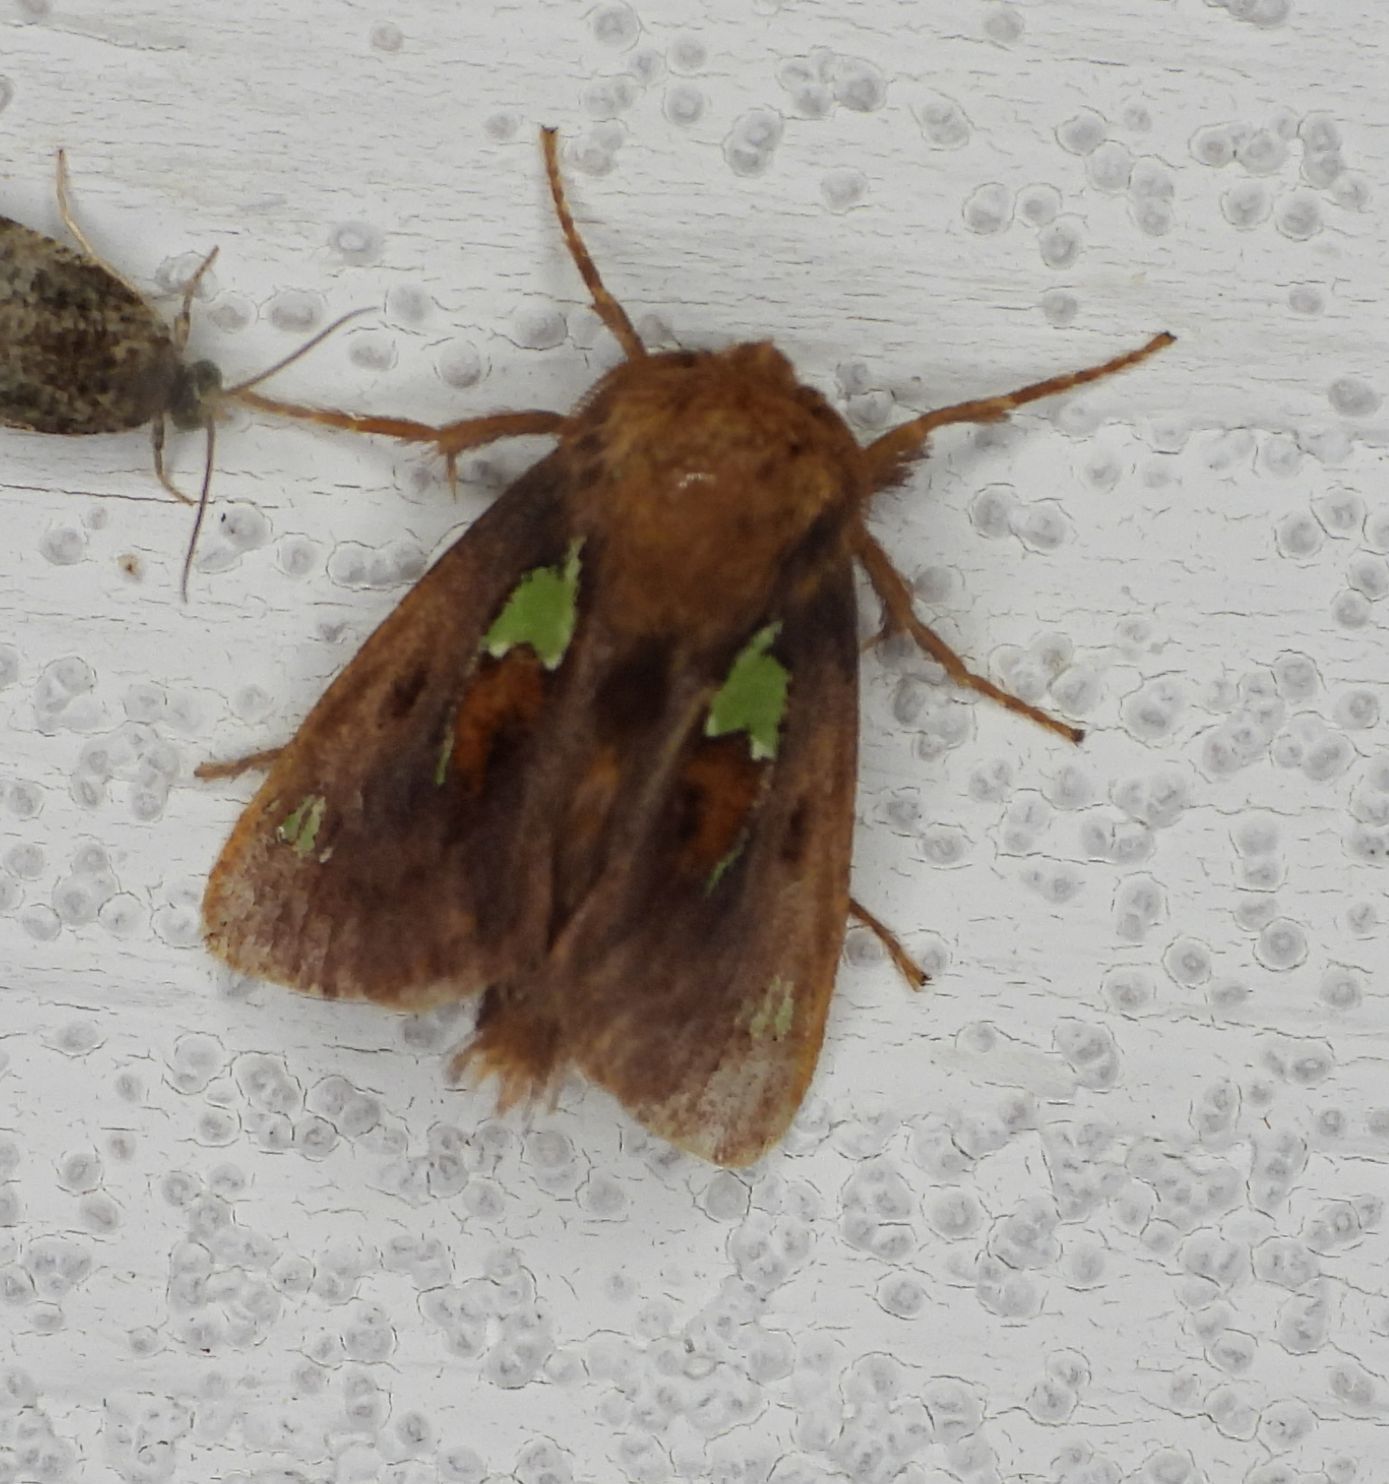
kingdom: Animalia
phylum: Arthropoda
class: Insecta
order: Lepidoptera
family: Limacodidae
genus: Euclea
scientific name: Euclea delphinii
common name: Spiny oak-slug moth
